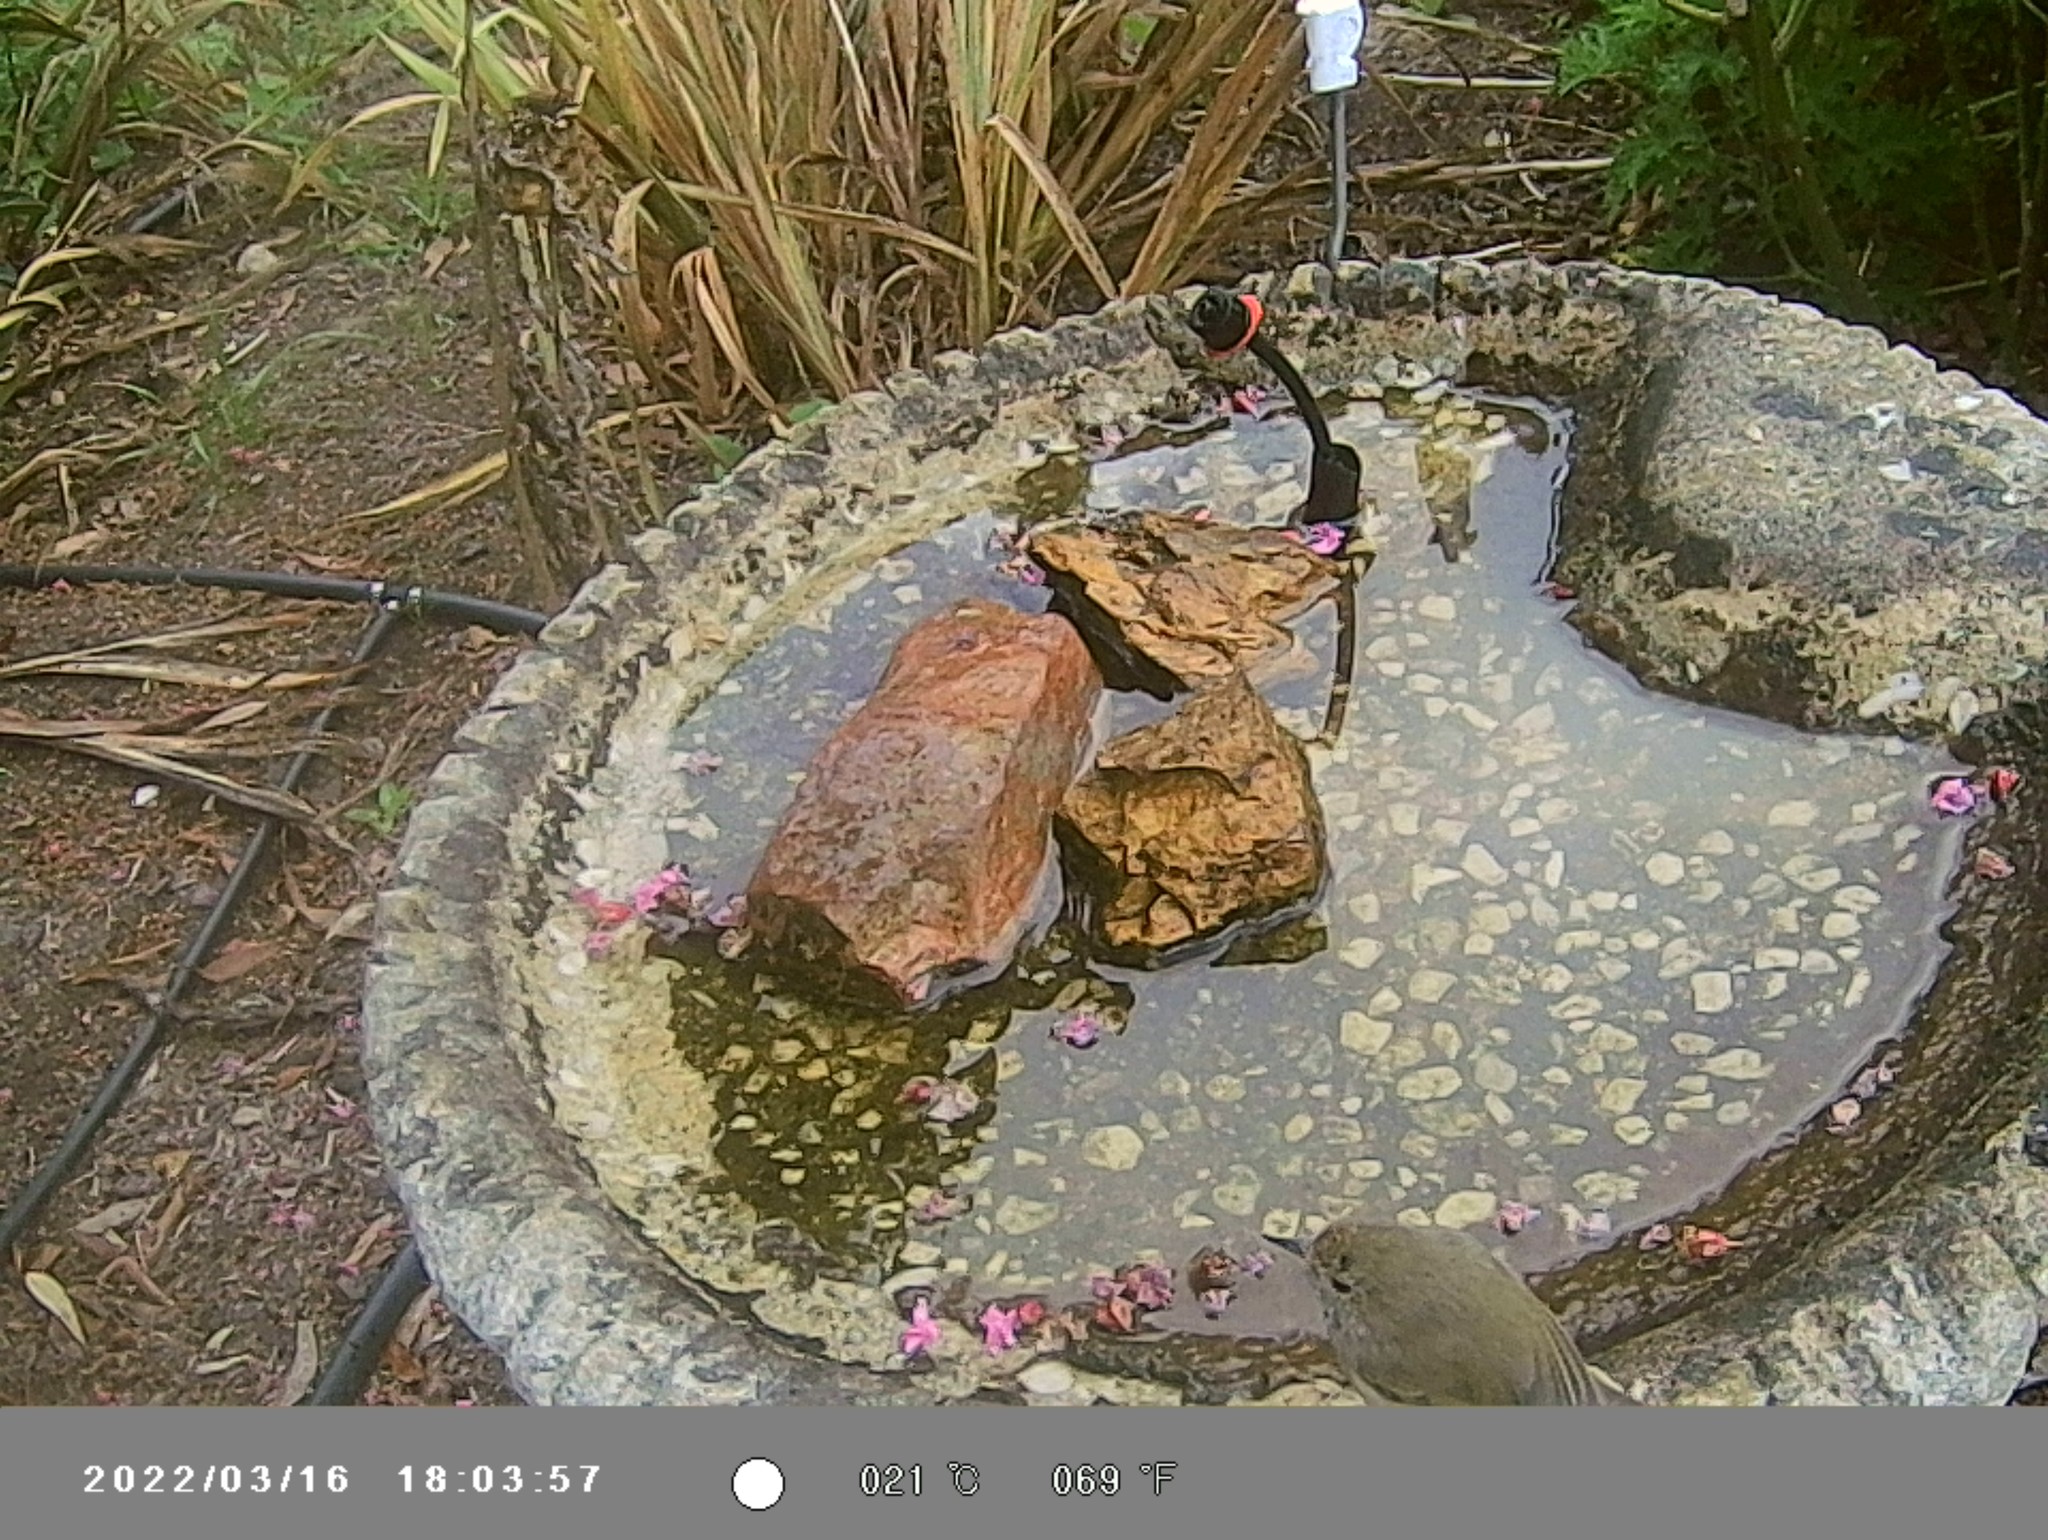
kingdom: Animalia
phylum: Chordata
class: Aves
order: Passeriformes
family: Acanthizidae
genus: Acanthiza
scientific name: Acanthiza pusilla
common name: Brown thornbill
